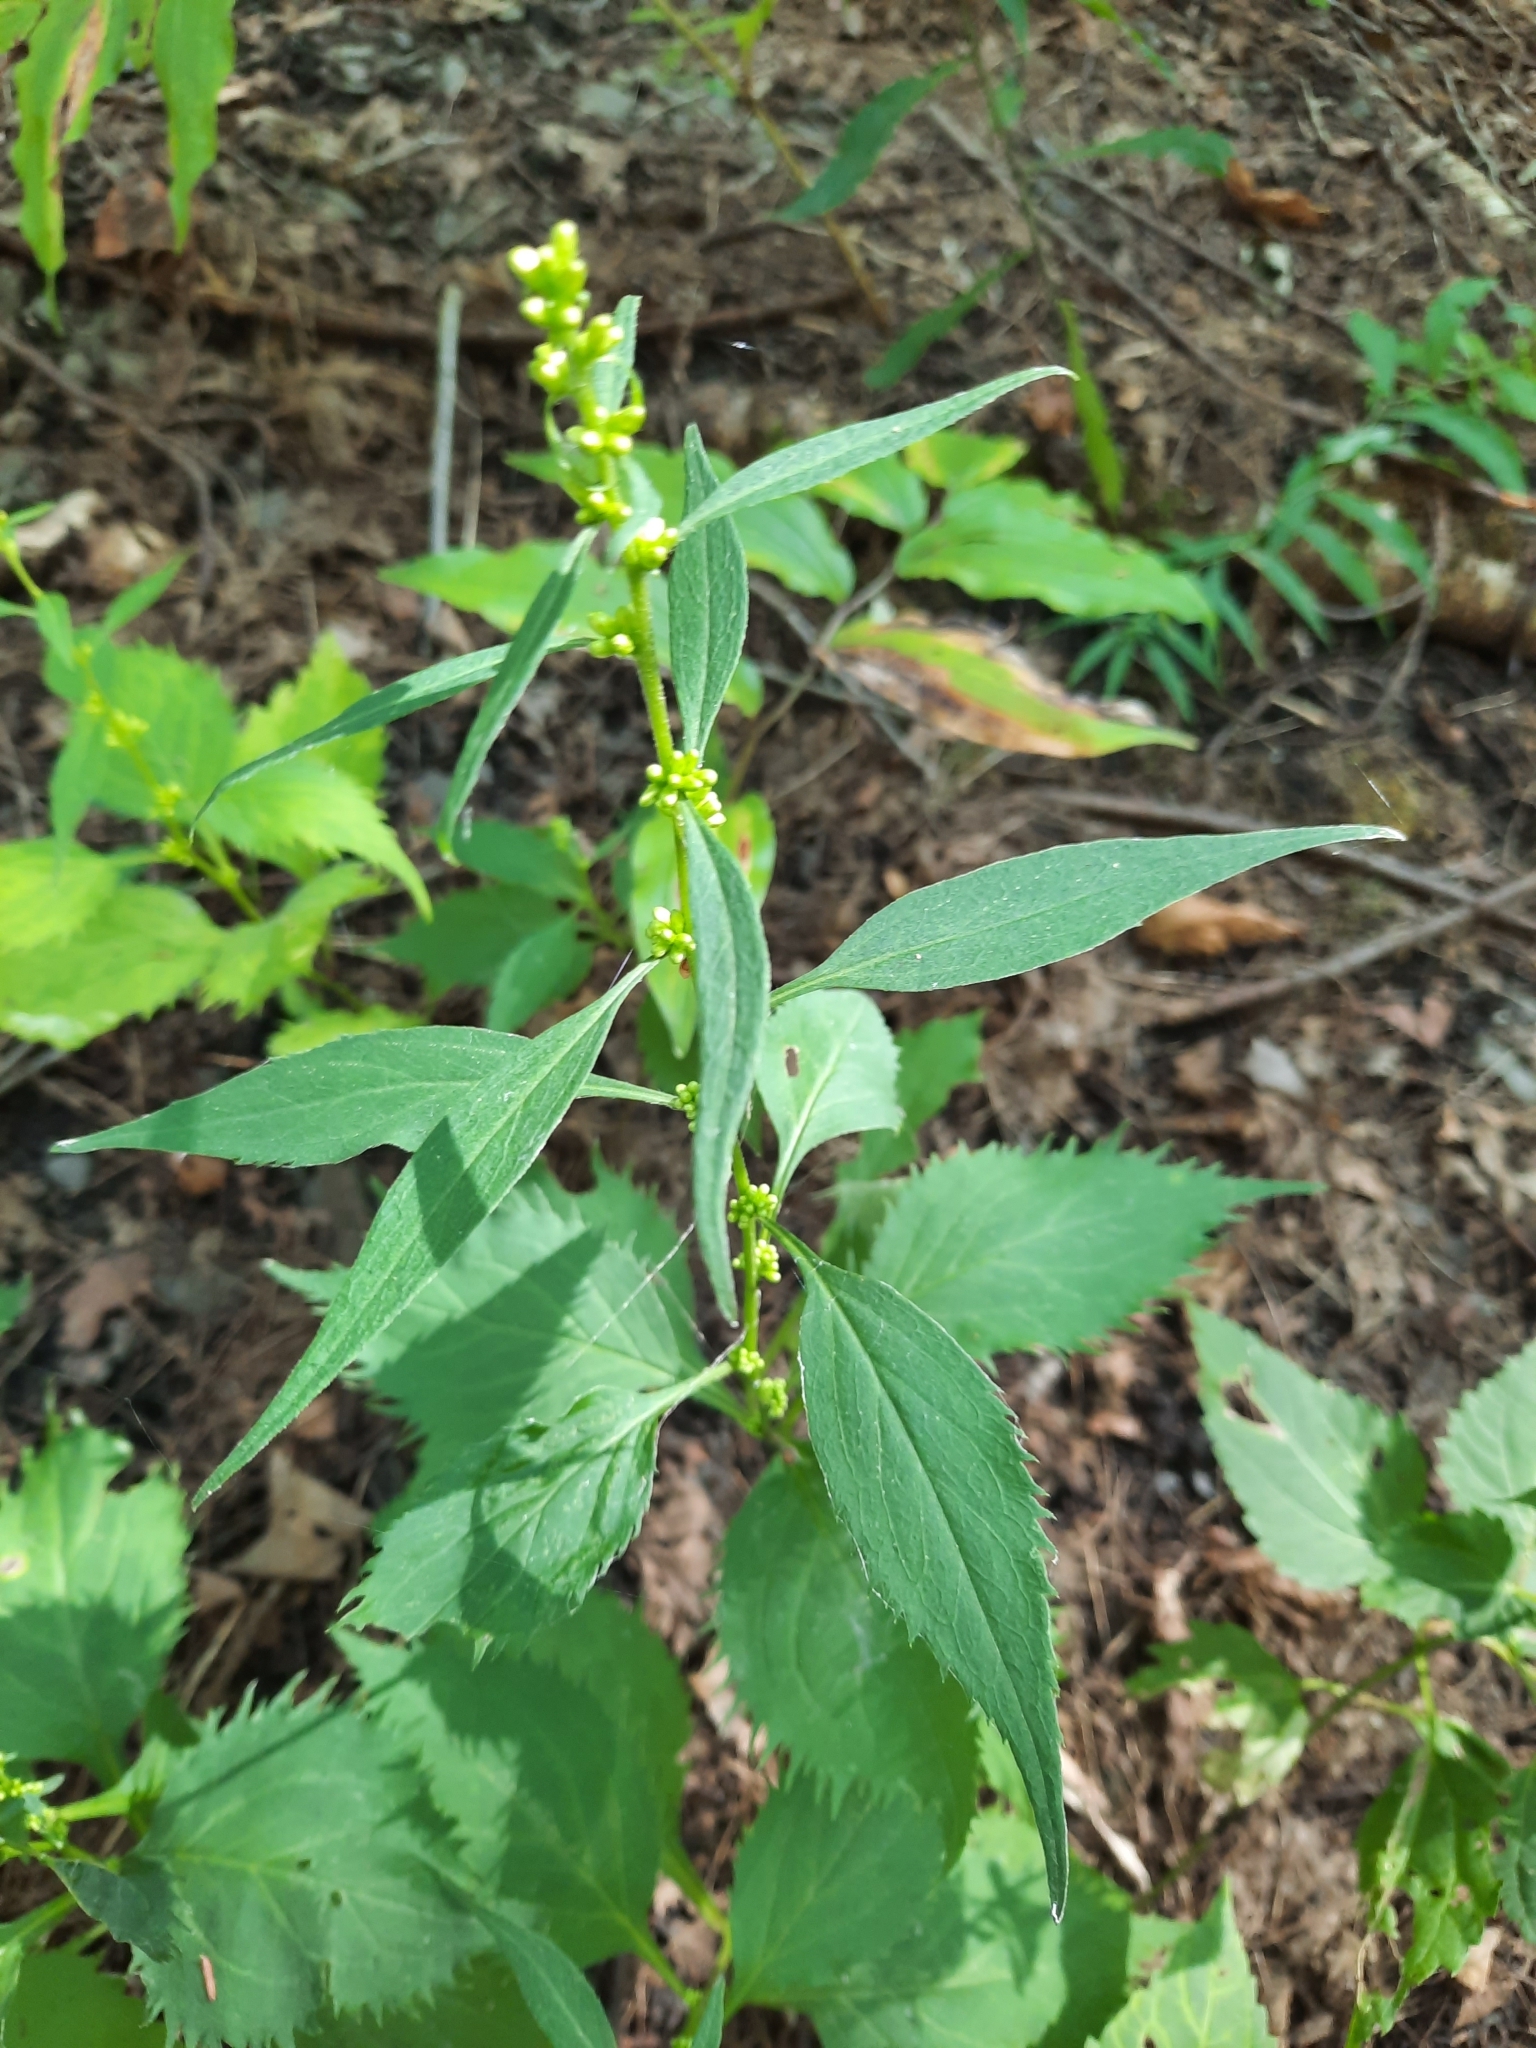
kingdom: Plantae
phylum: Tracheophyta
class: Magnoliopsida
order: Asterales
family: Asteraceae
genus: Solidago
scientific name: Solidago flexicaulis
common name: Zig-zag goldenrod
